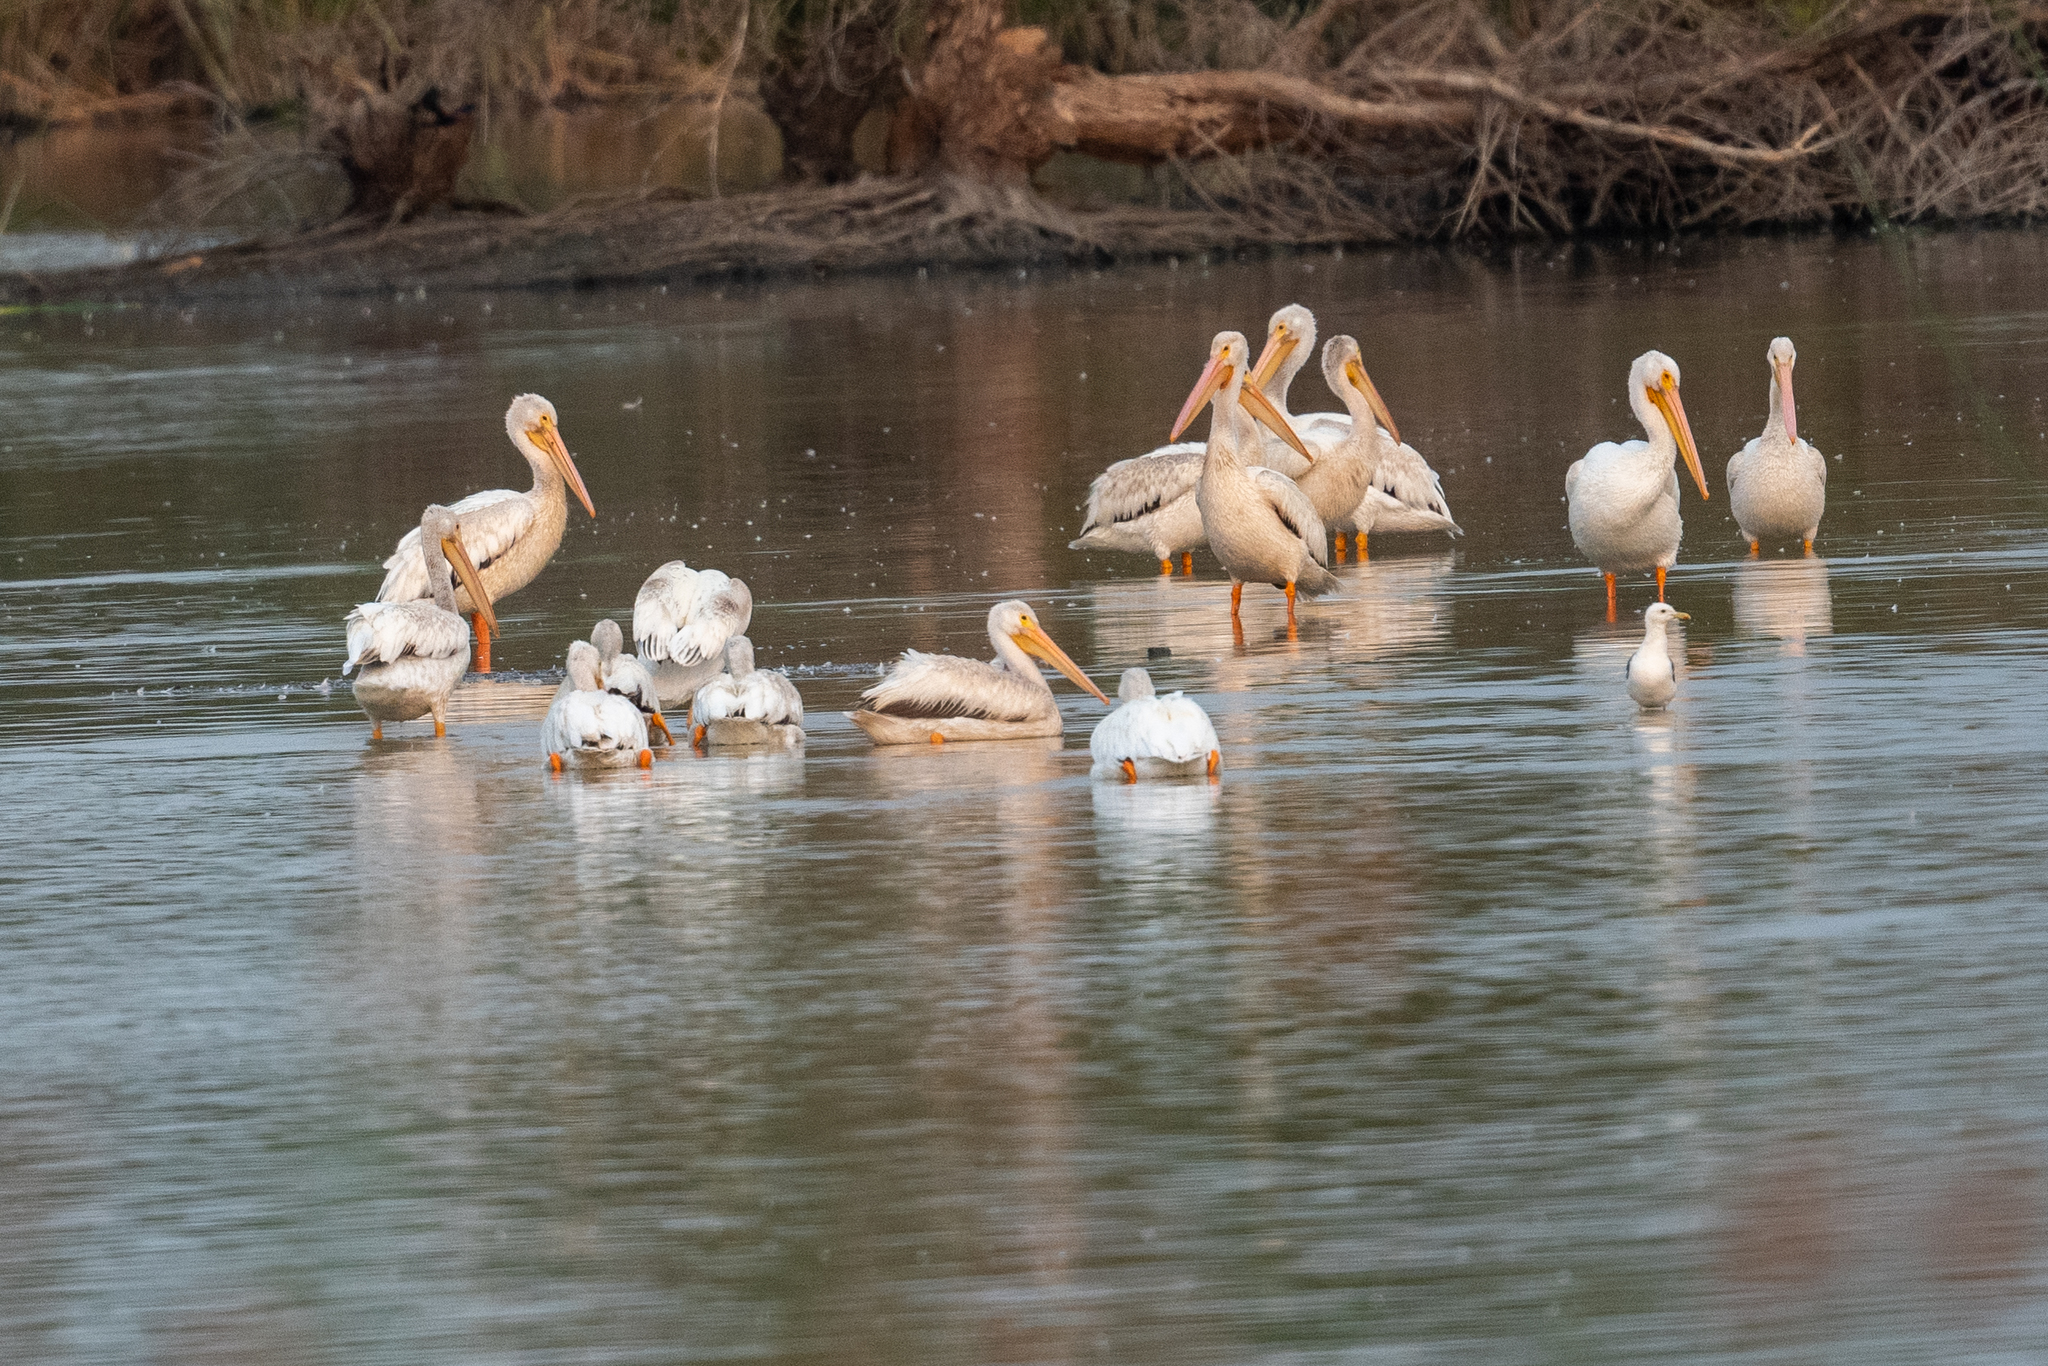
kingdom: Animalia
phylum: Chordata
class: Aves
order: Pelecaniformes
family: Pelecanidae
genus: Pelecanus
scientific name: Pelecanus erythrorhynchos
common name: American white pelican
